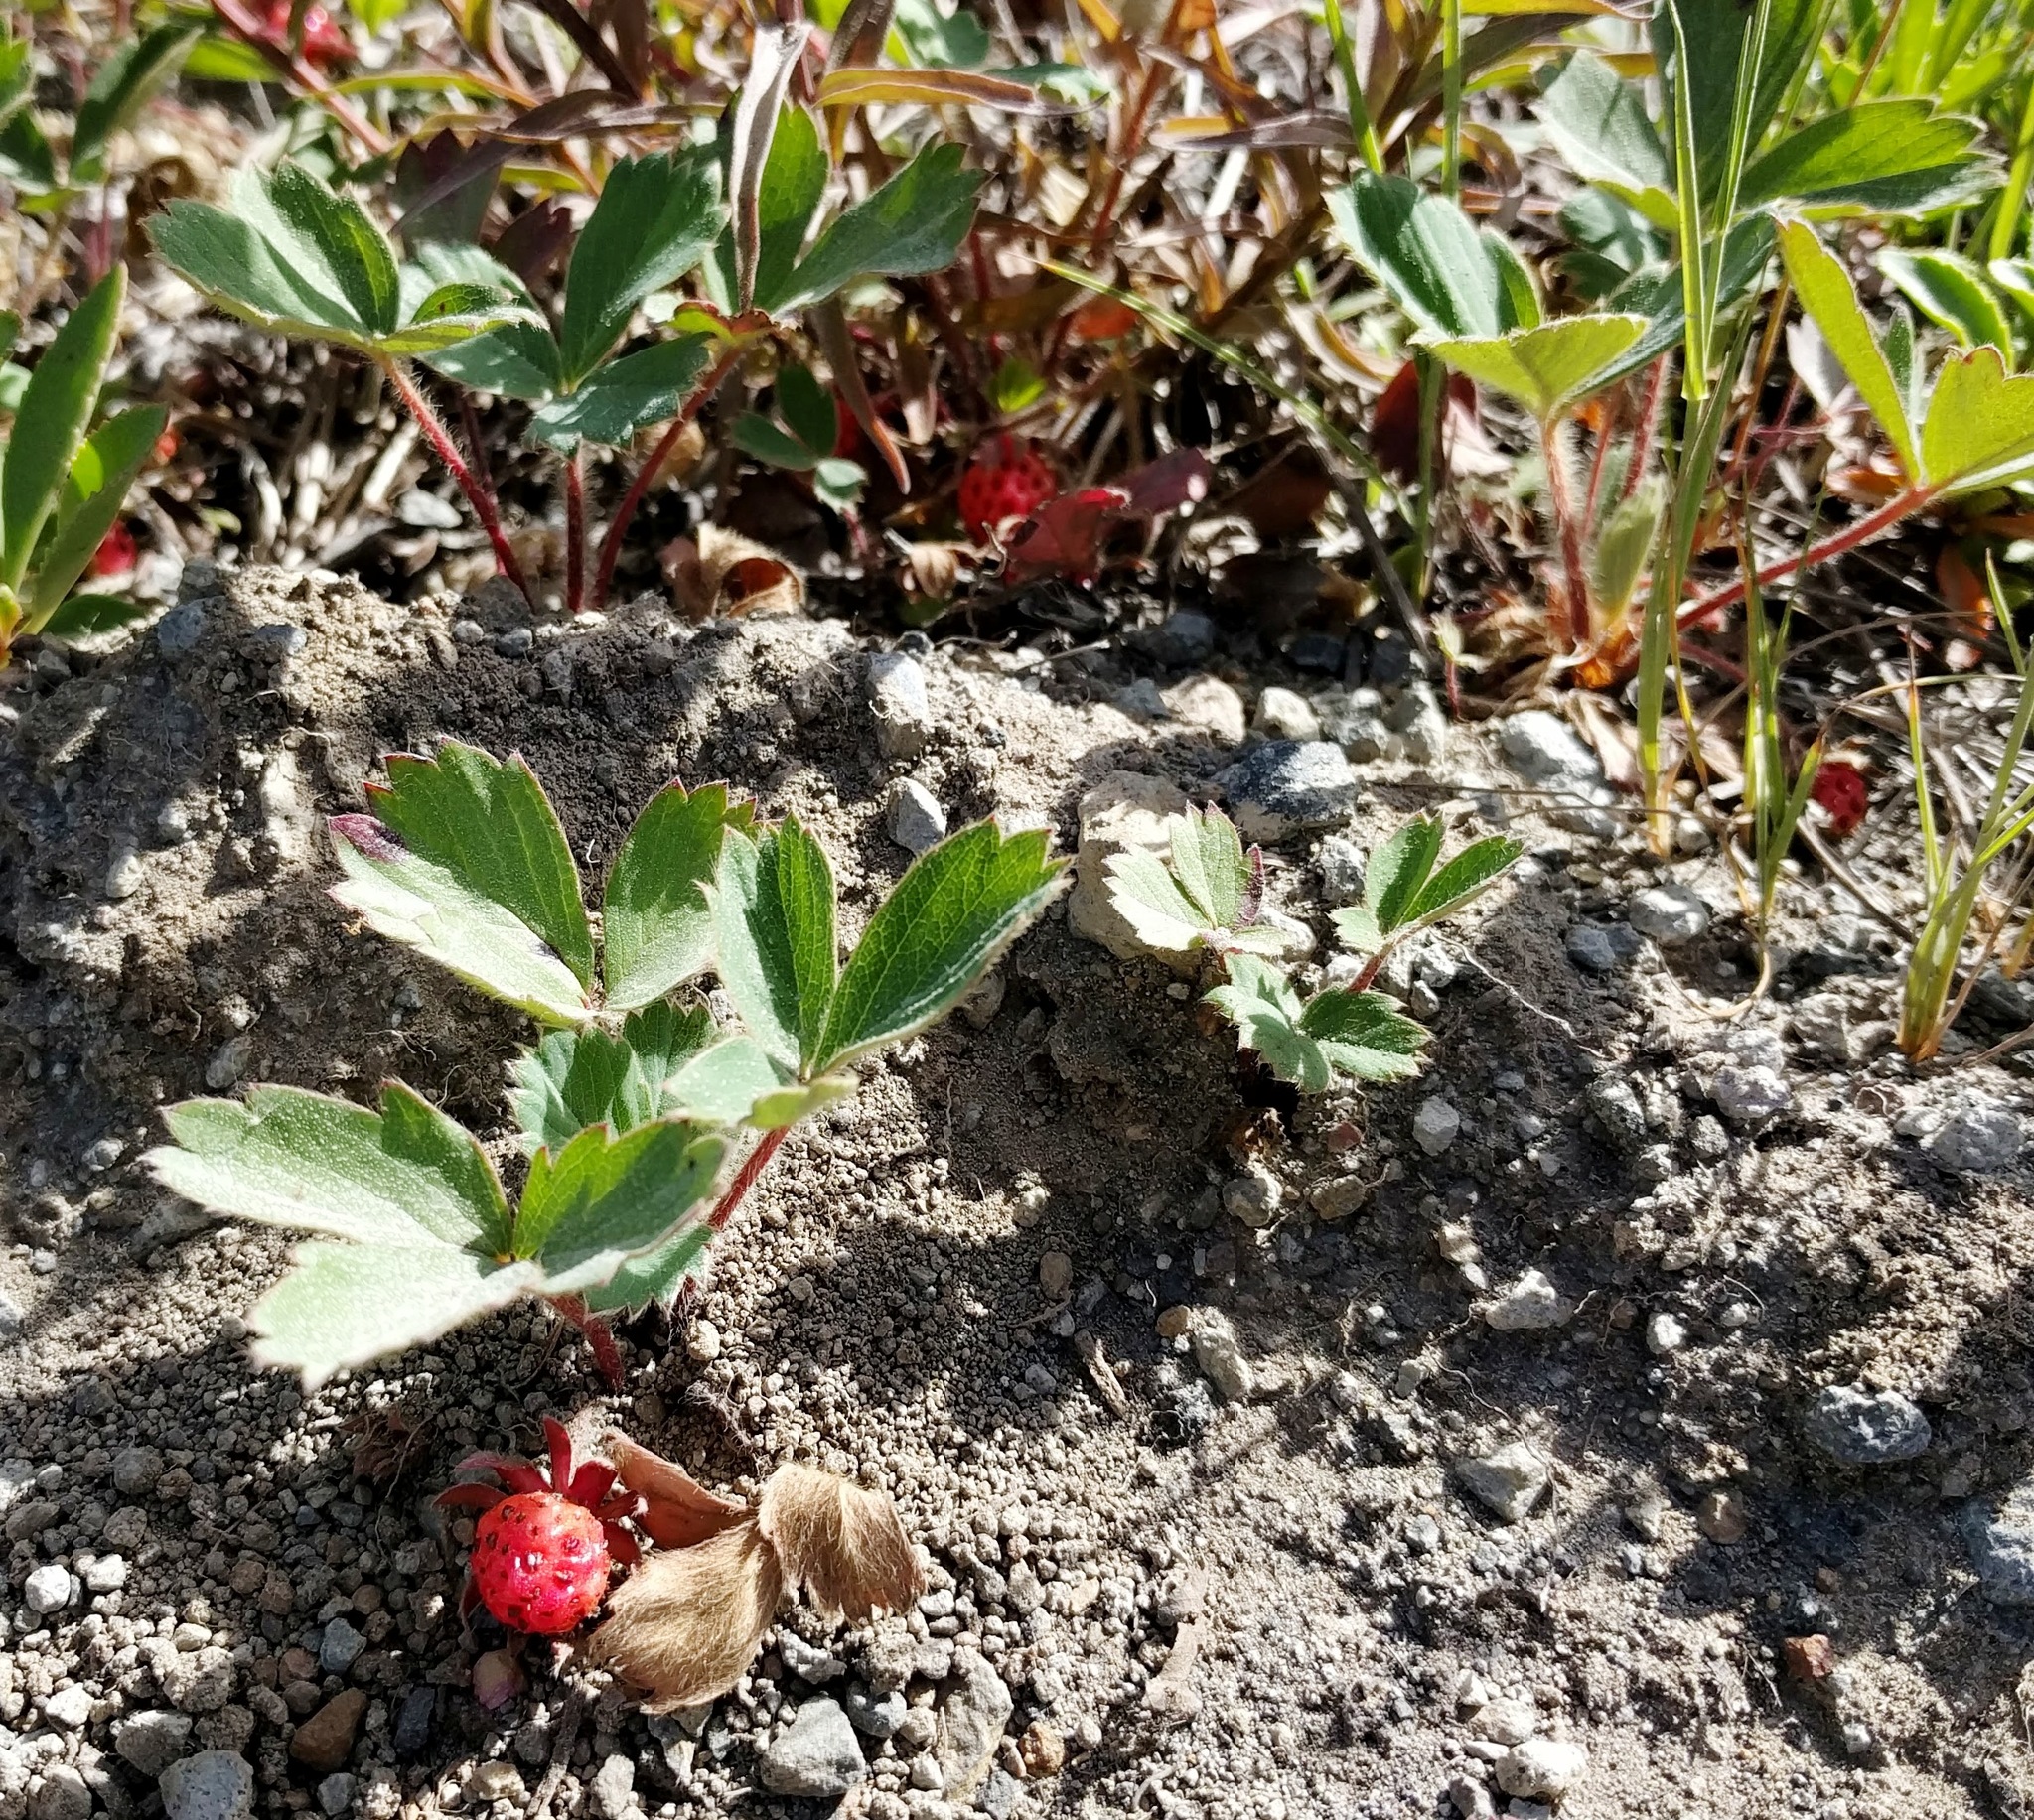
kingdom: Plantae
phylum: Tracheophyta
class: Magnoliopsida
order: Rosales
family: Rosaceae
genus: Fragaria
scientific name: Fragaria virginiana
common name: Thickleaved wild strawberry
